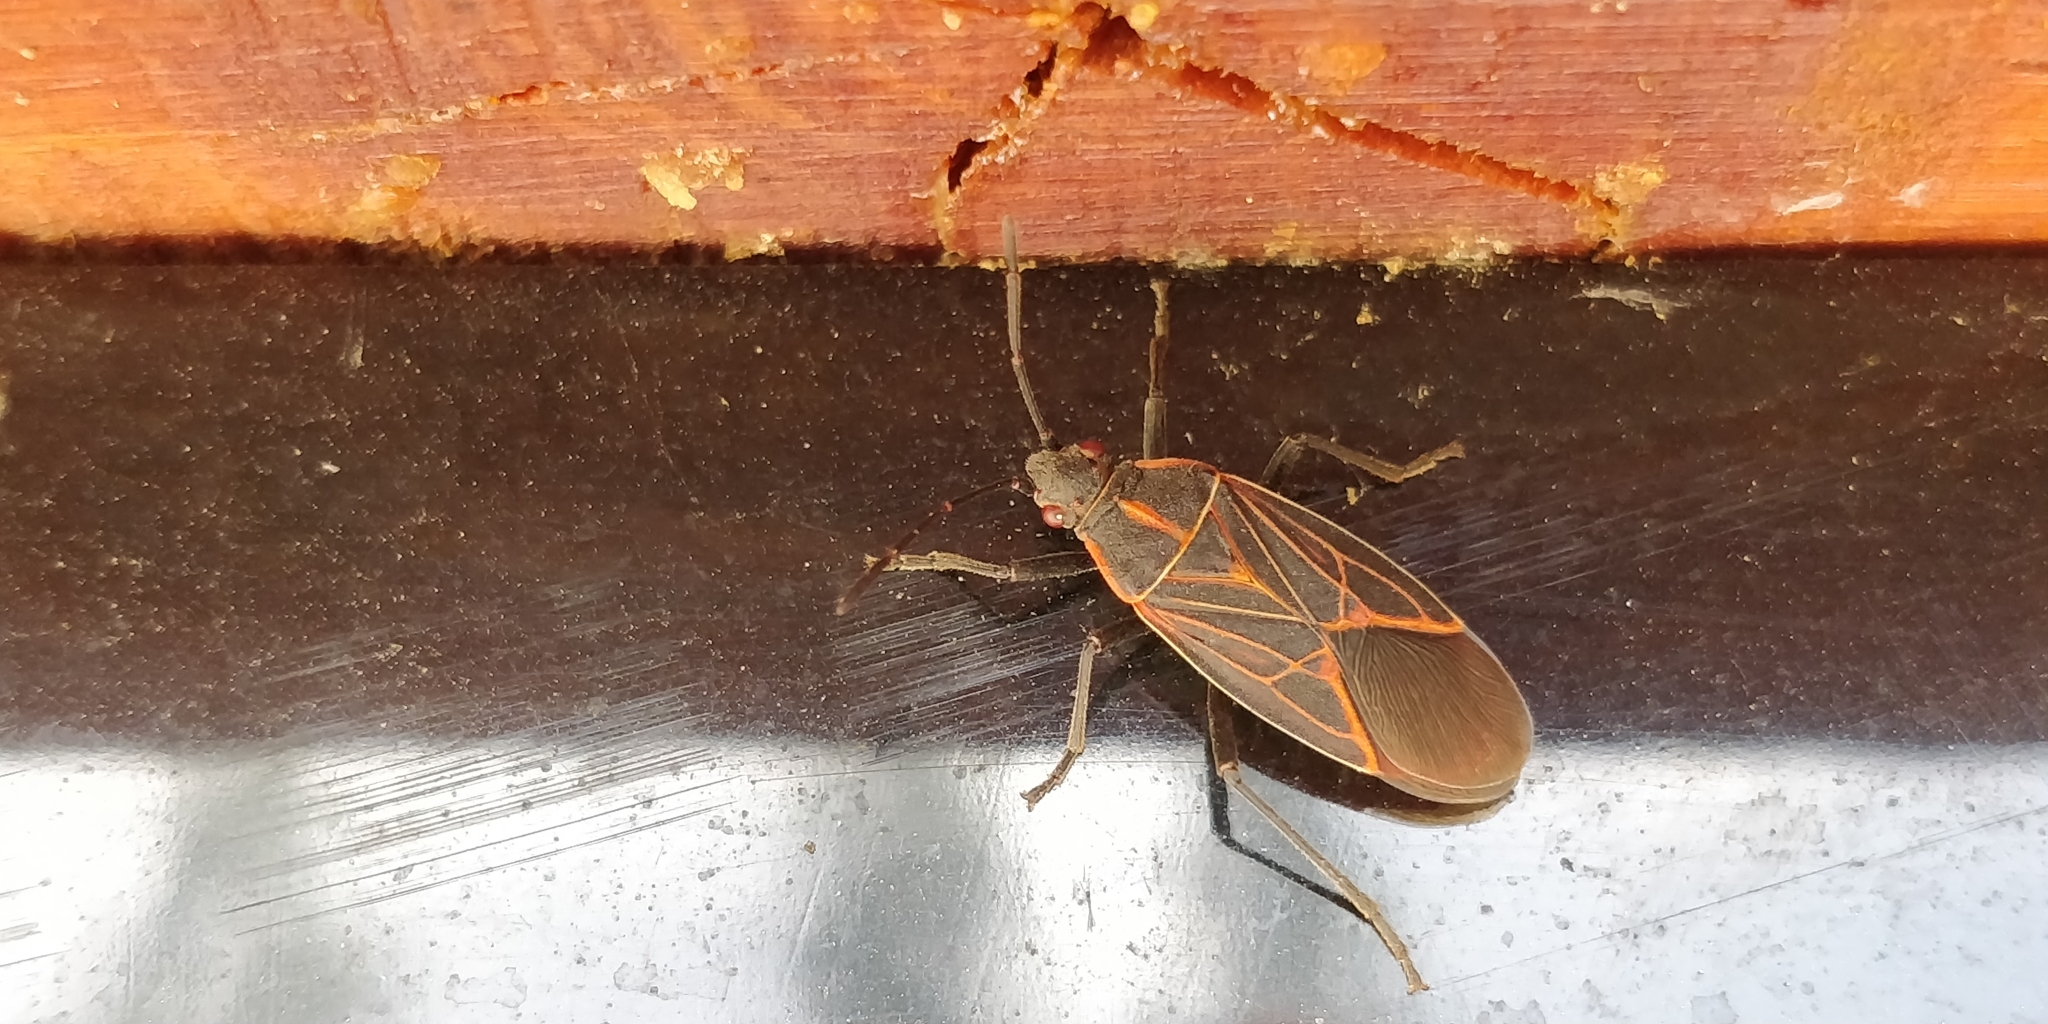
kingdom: Animalia
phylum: Arthropoda
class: Insecta
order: Hemiptera
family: Rhopalidae
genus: Boisea
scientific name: Boisea rubrolineata
